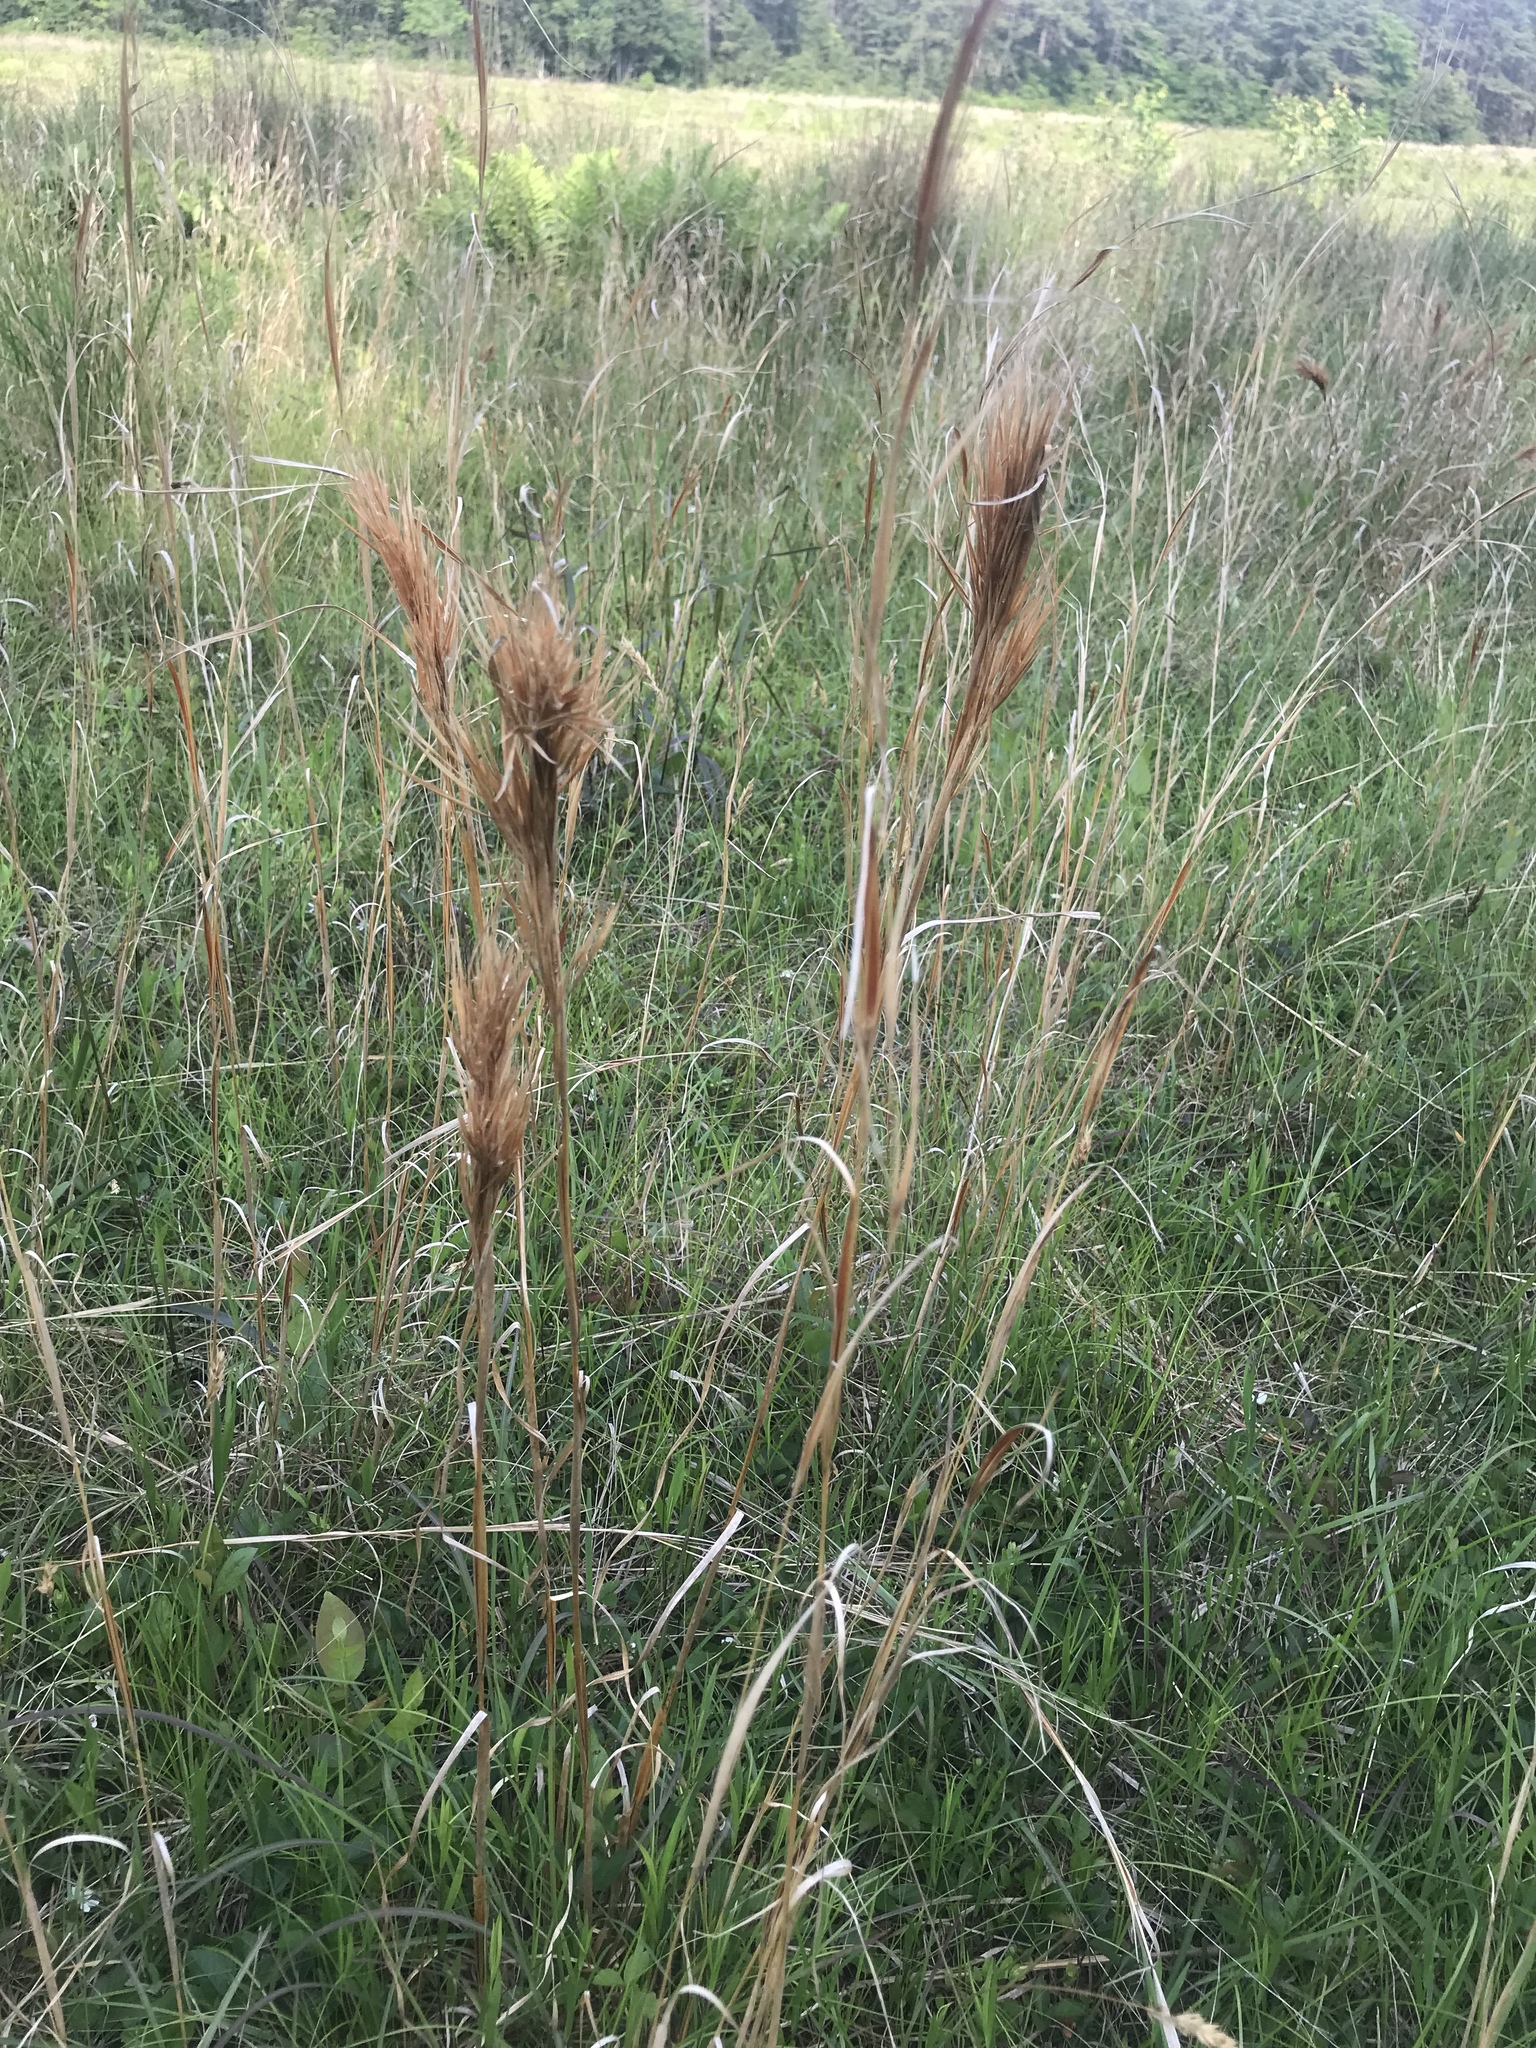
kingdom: Plantae
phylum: Tracheophyta
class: Liliopsida
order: Poales
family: Poaceae
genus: Andropogon
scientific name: Andropogon glomeratus
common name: Bushy beard grass
